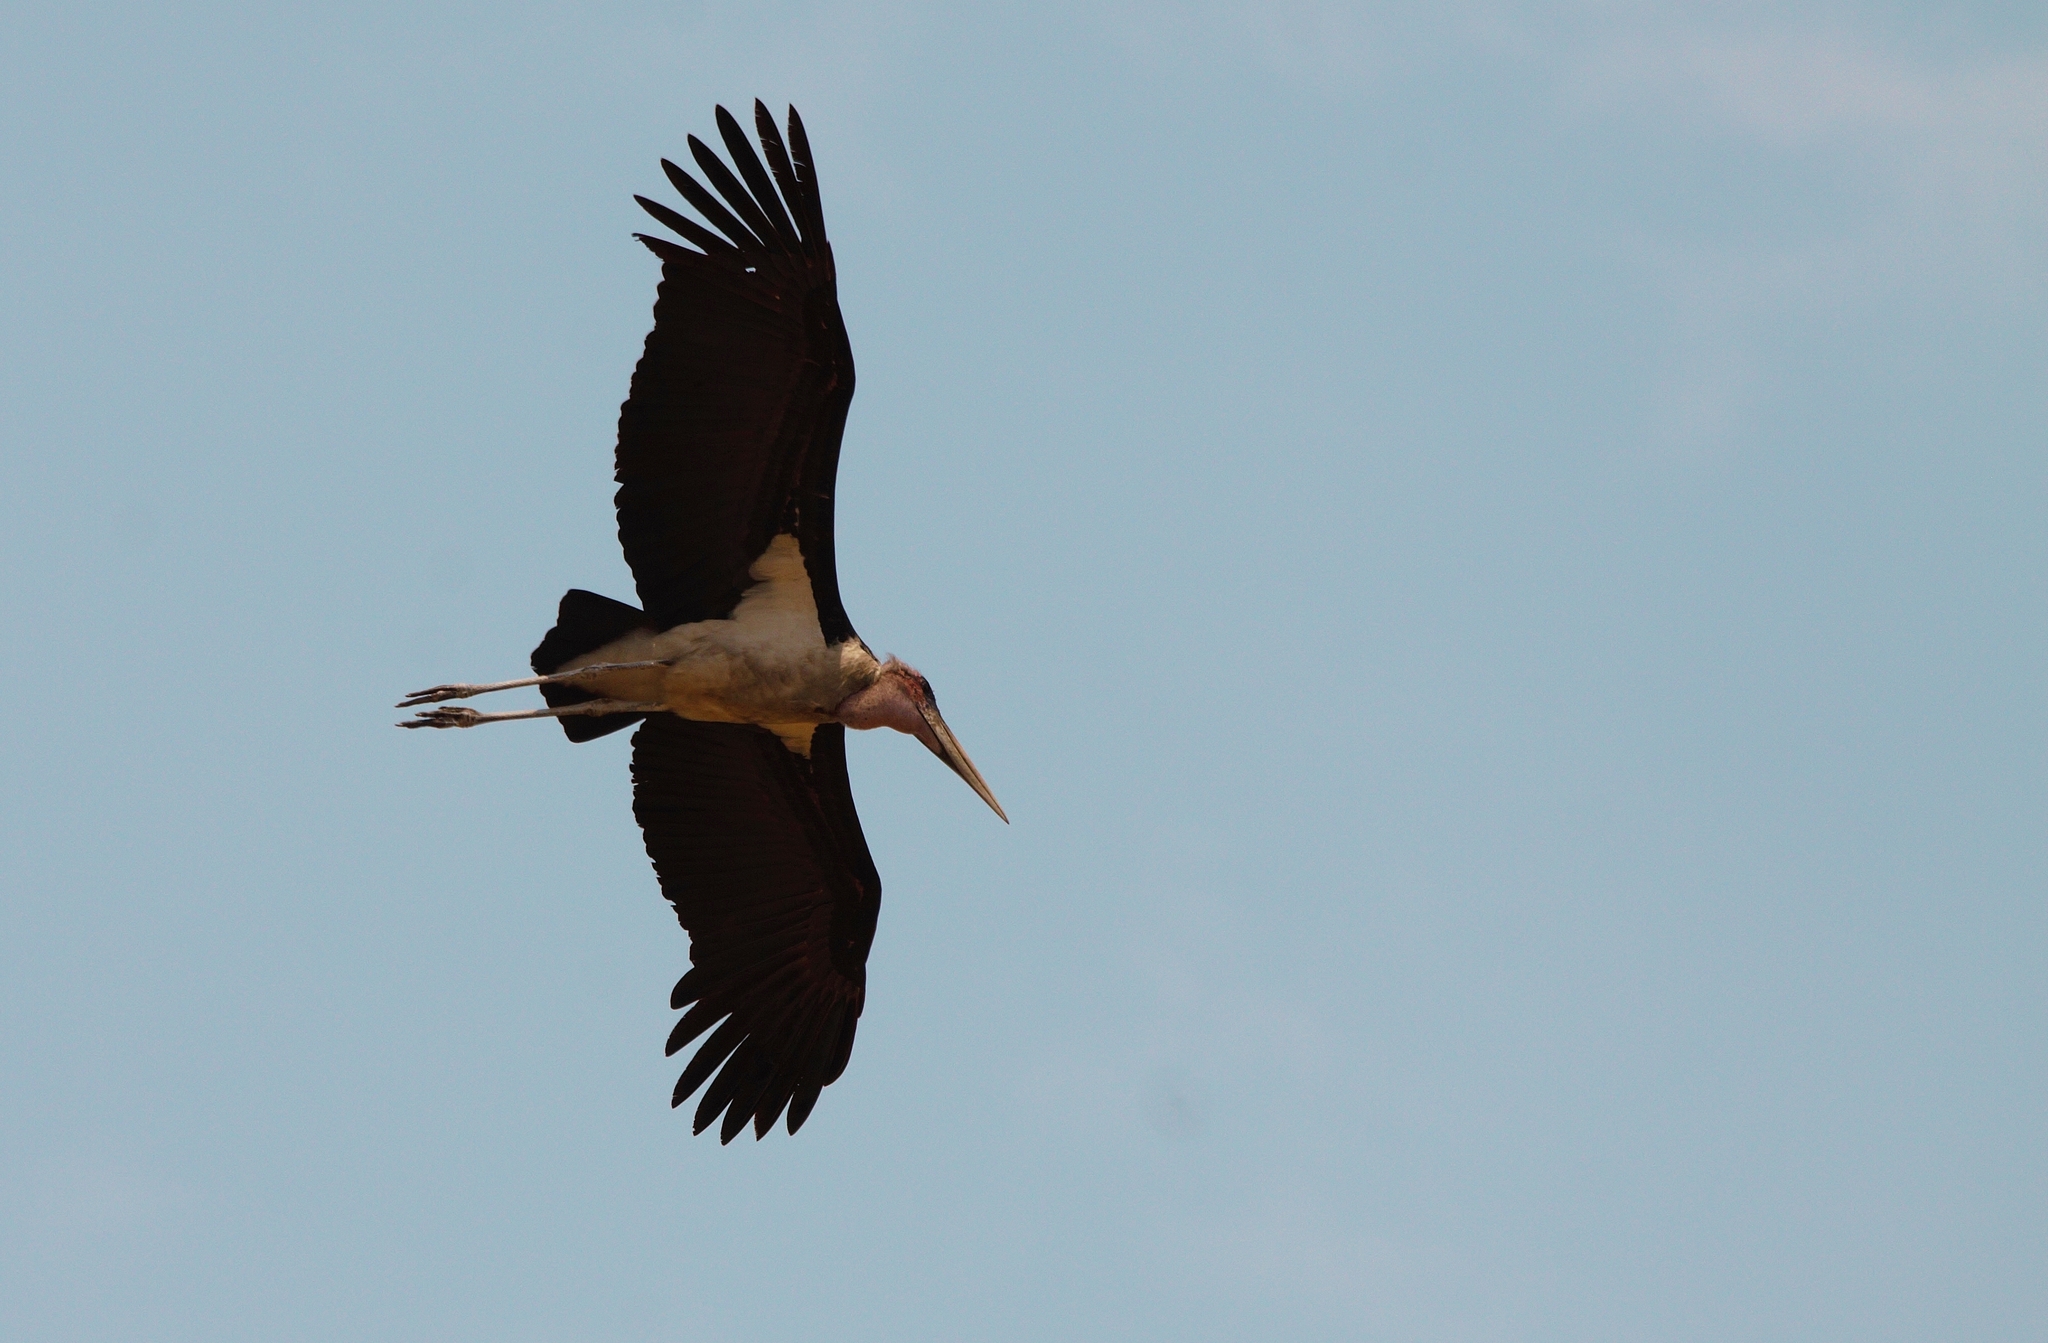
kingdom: Animalia
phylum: Chordata
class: Aves
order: Ciconiiformes
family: Ciconiidae
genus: Leptoptilos
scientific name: Leptoptilos crumenifer
